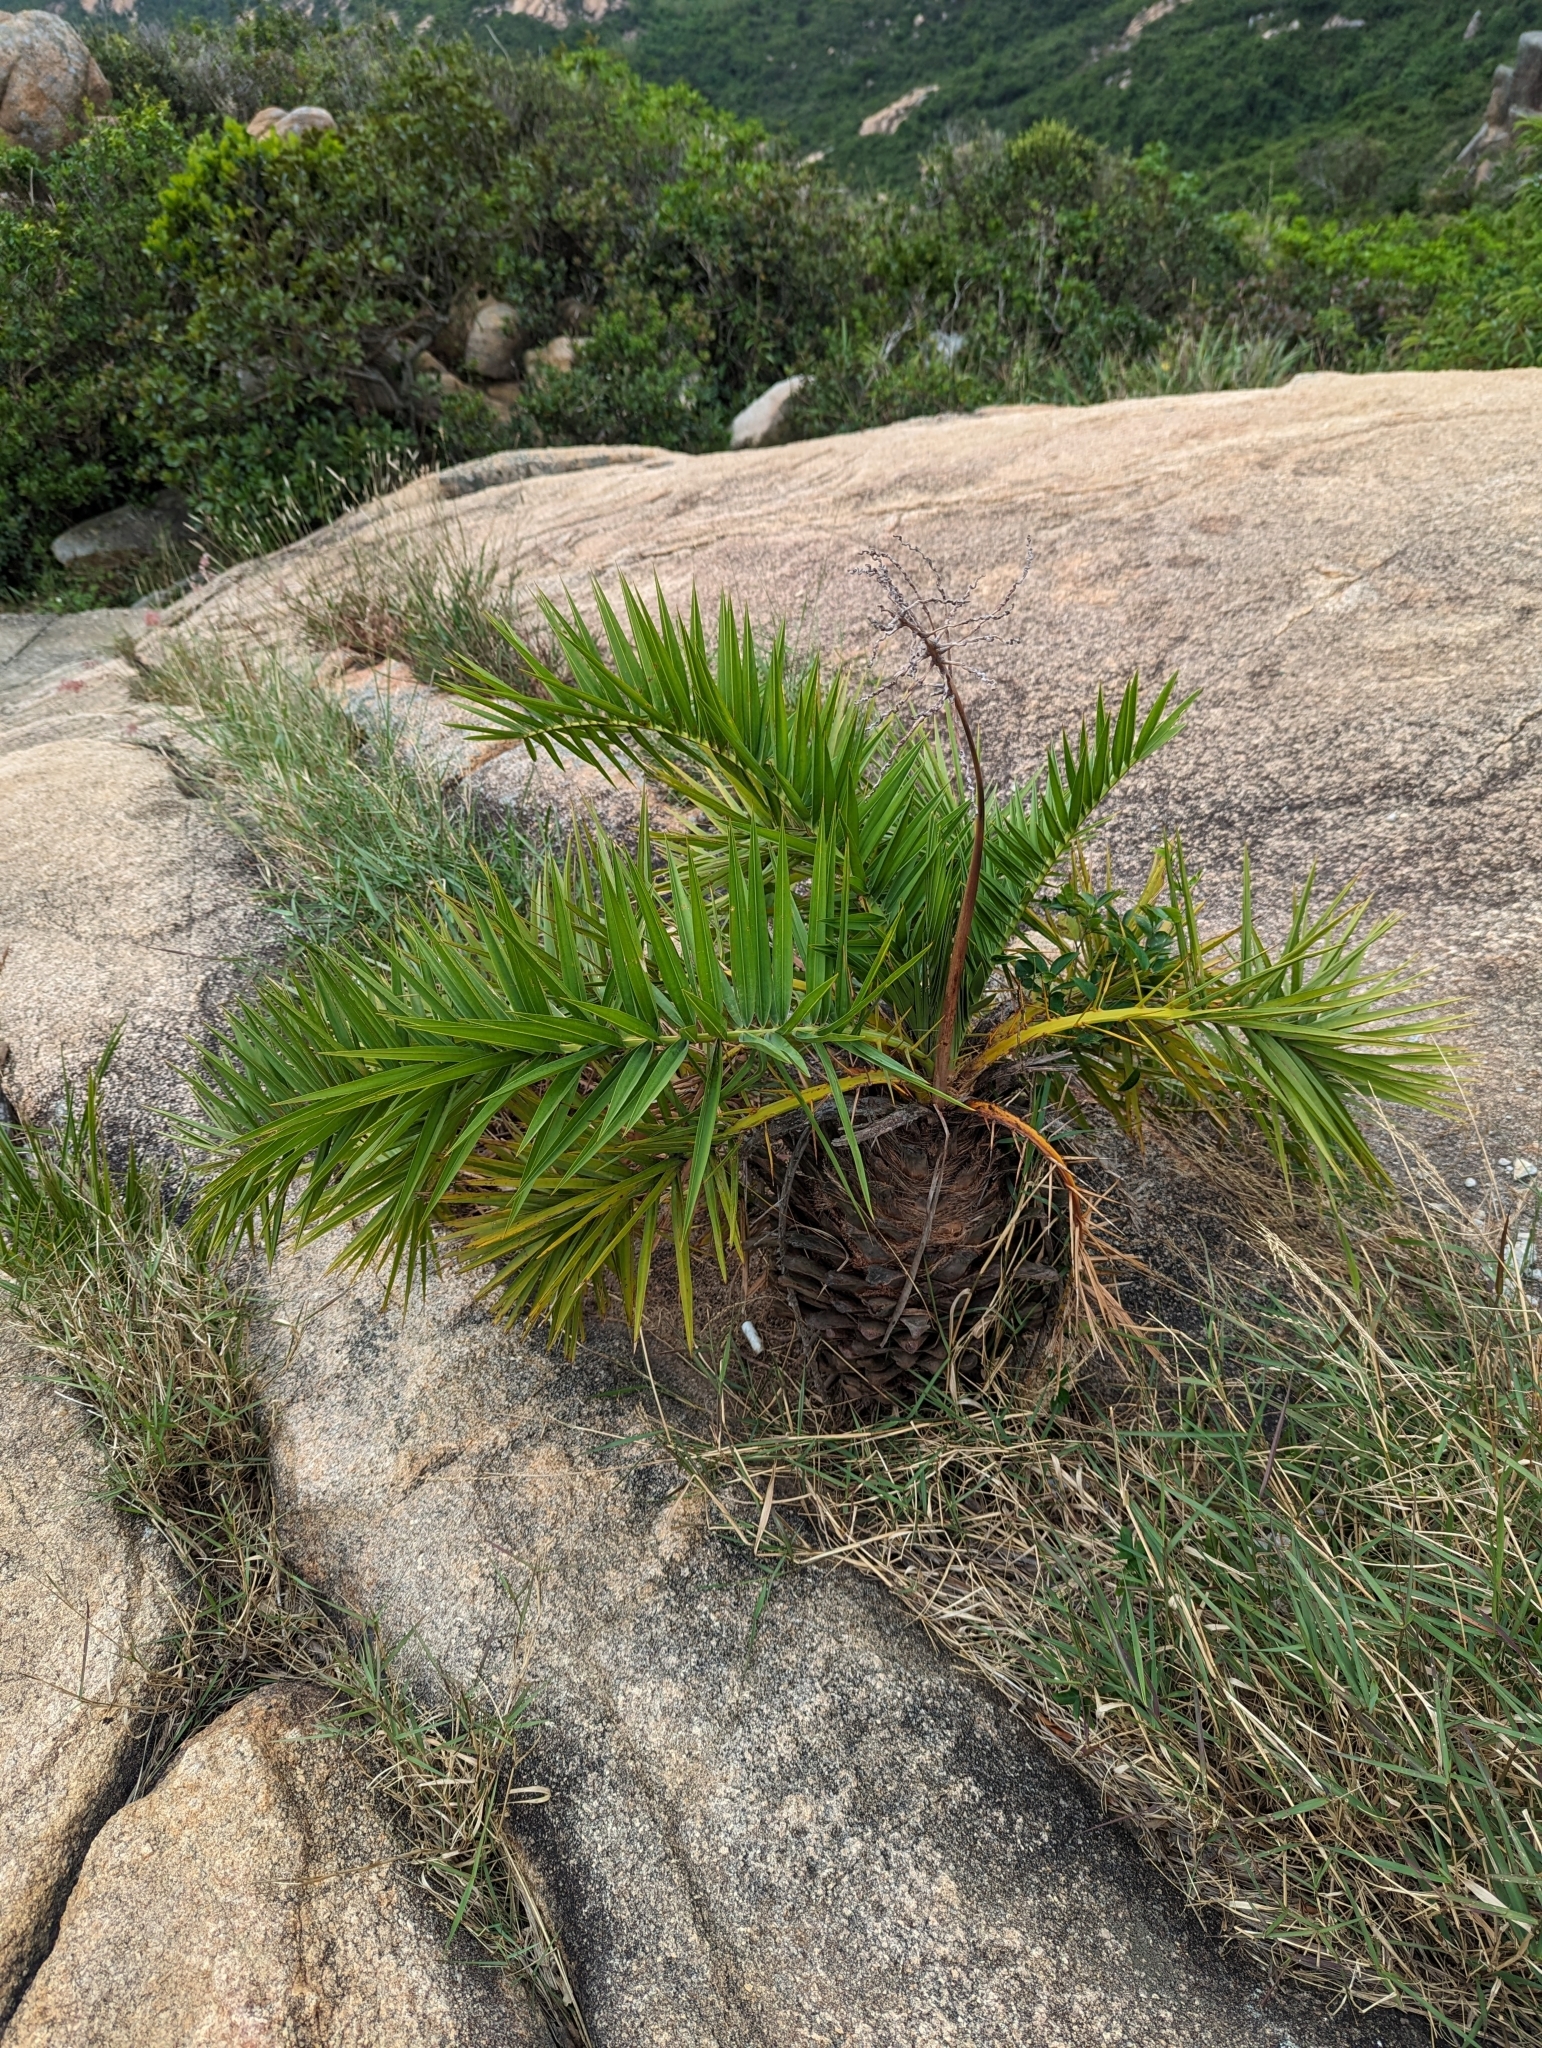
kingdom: Plantae
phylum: Tracheophyta
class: Liliopsida
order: Arecales
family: Arecaceae
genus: Phoenix
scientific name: Phoenix loureiroi
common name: Loureiro's palm
